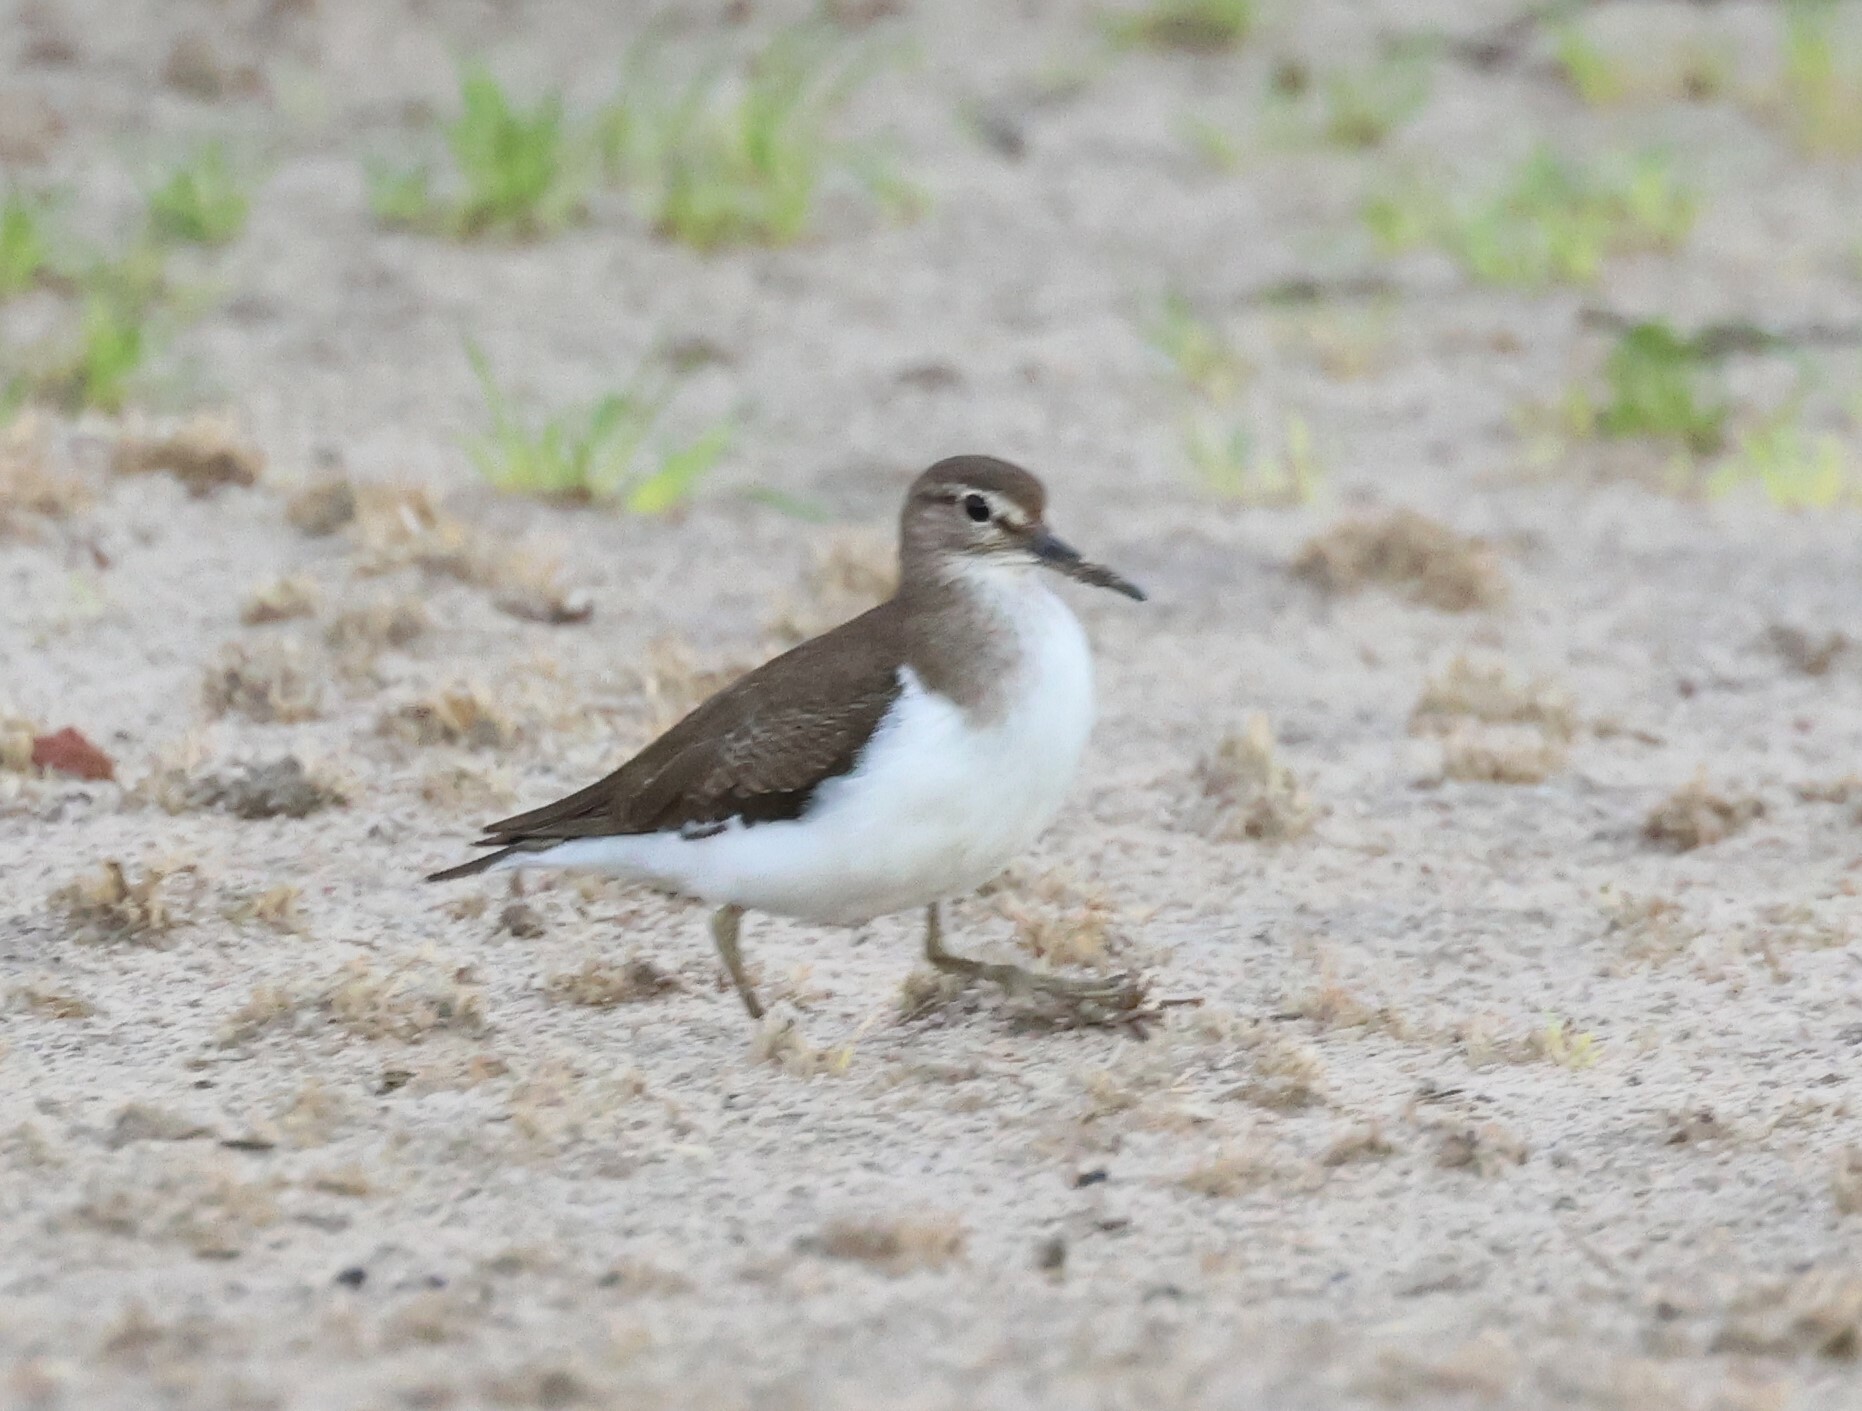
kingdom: Animalia
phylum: Chordata
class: Aves
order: Charadriiformes
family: Scolopacidae
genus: Actitis
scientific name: Actitis hypoleucos
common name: Common sandpiper
